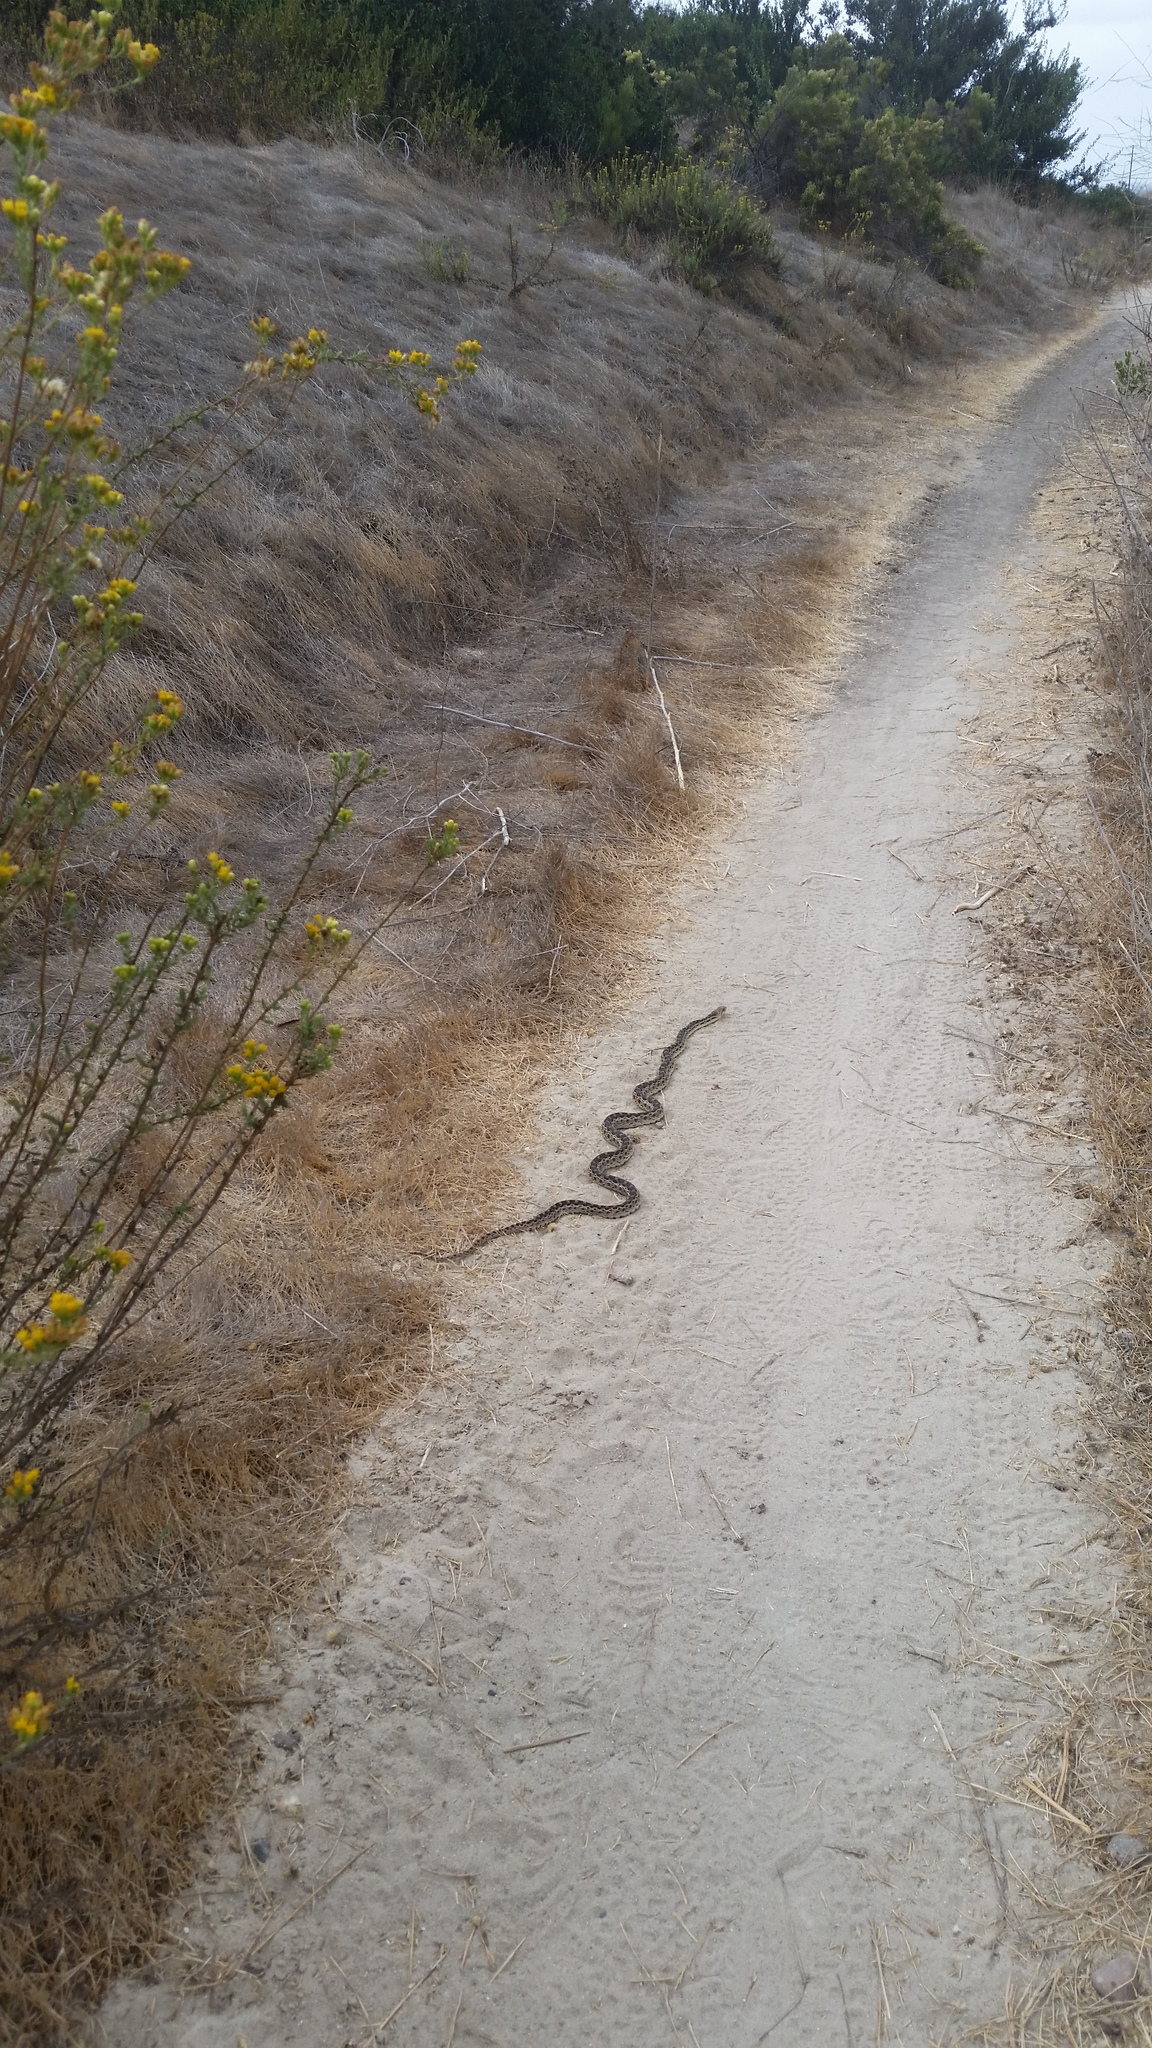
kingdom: Animalia
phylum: Chordata
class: Squamata
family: Colubridae
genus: Pituophis
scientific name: Pituophis catenifer
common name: Gopher snake
